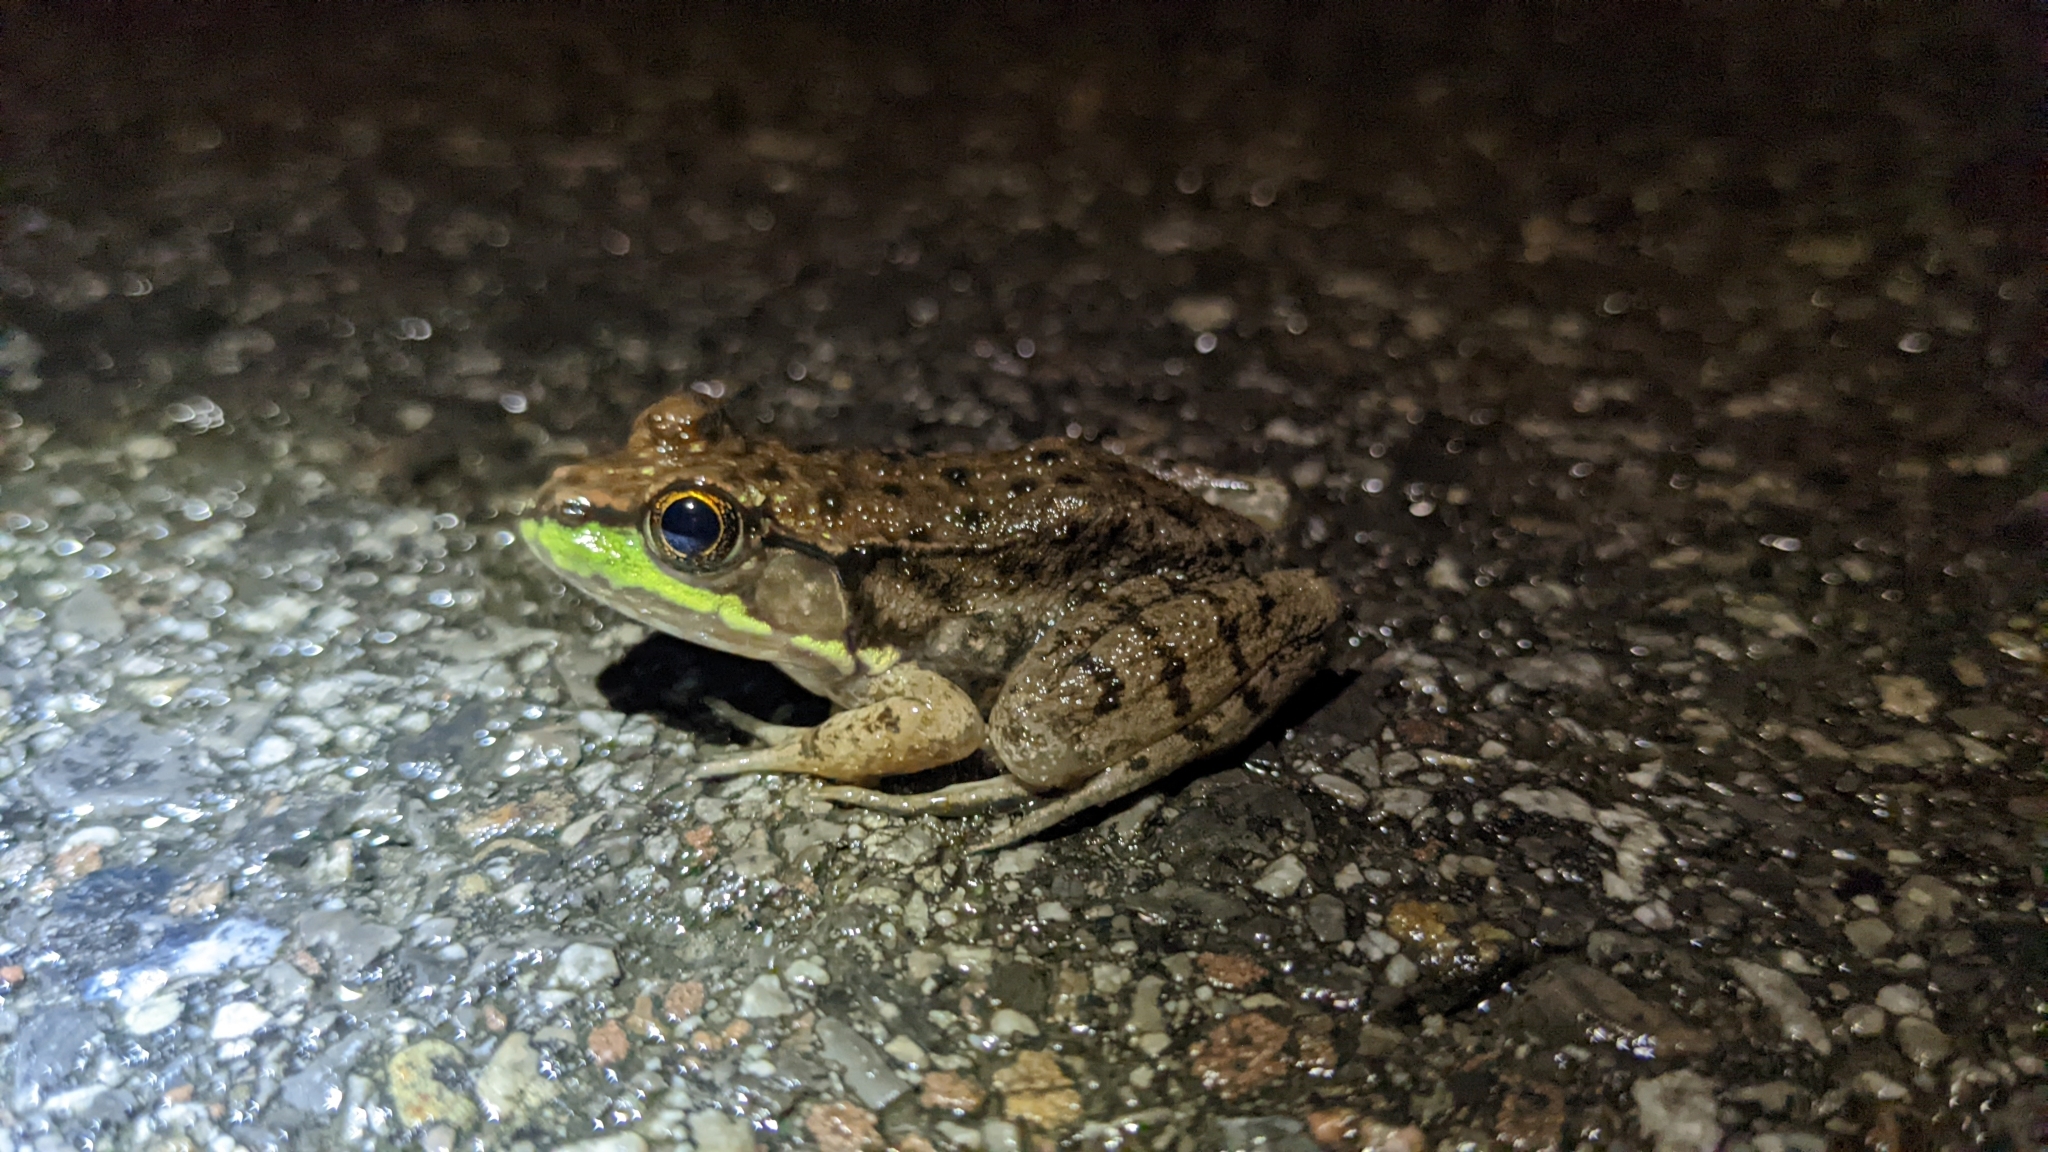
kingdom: Animalia
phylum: Chordata
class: Amphibia
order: Anura
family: Ranidae
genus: Lithobates
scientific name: Lithobates clamitans
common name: Green frog
